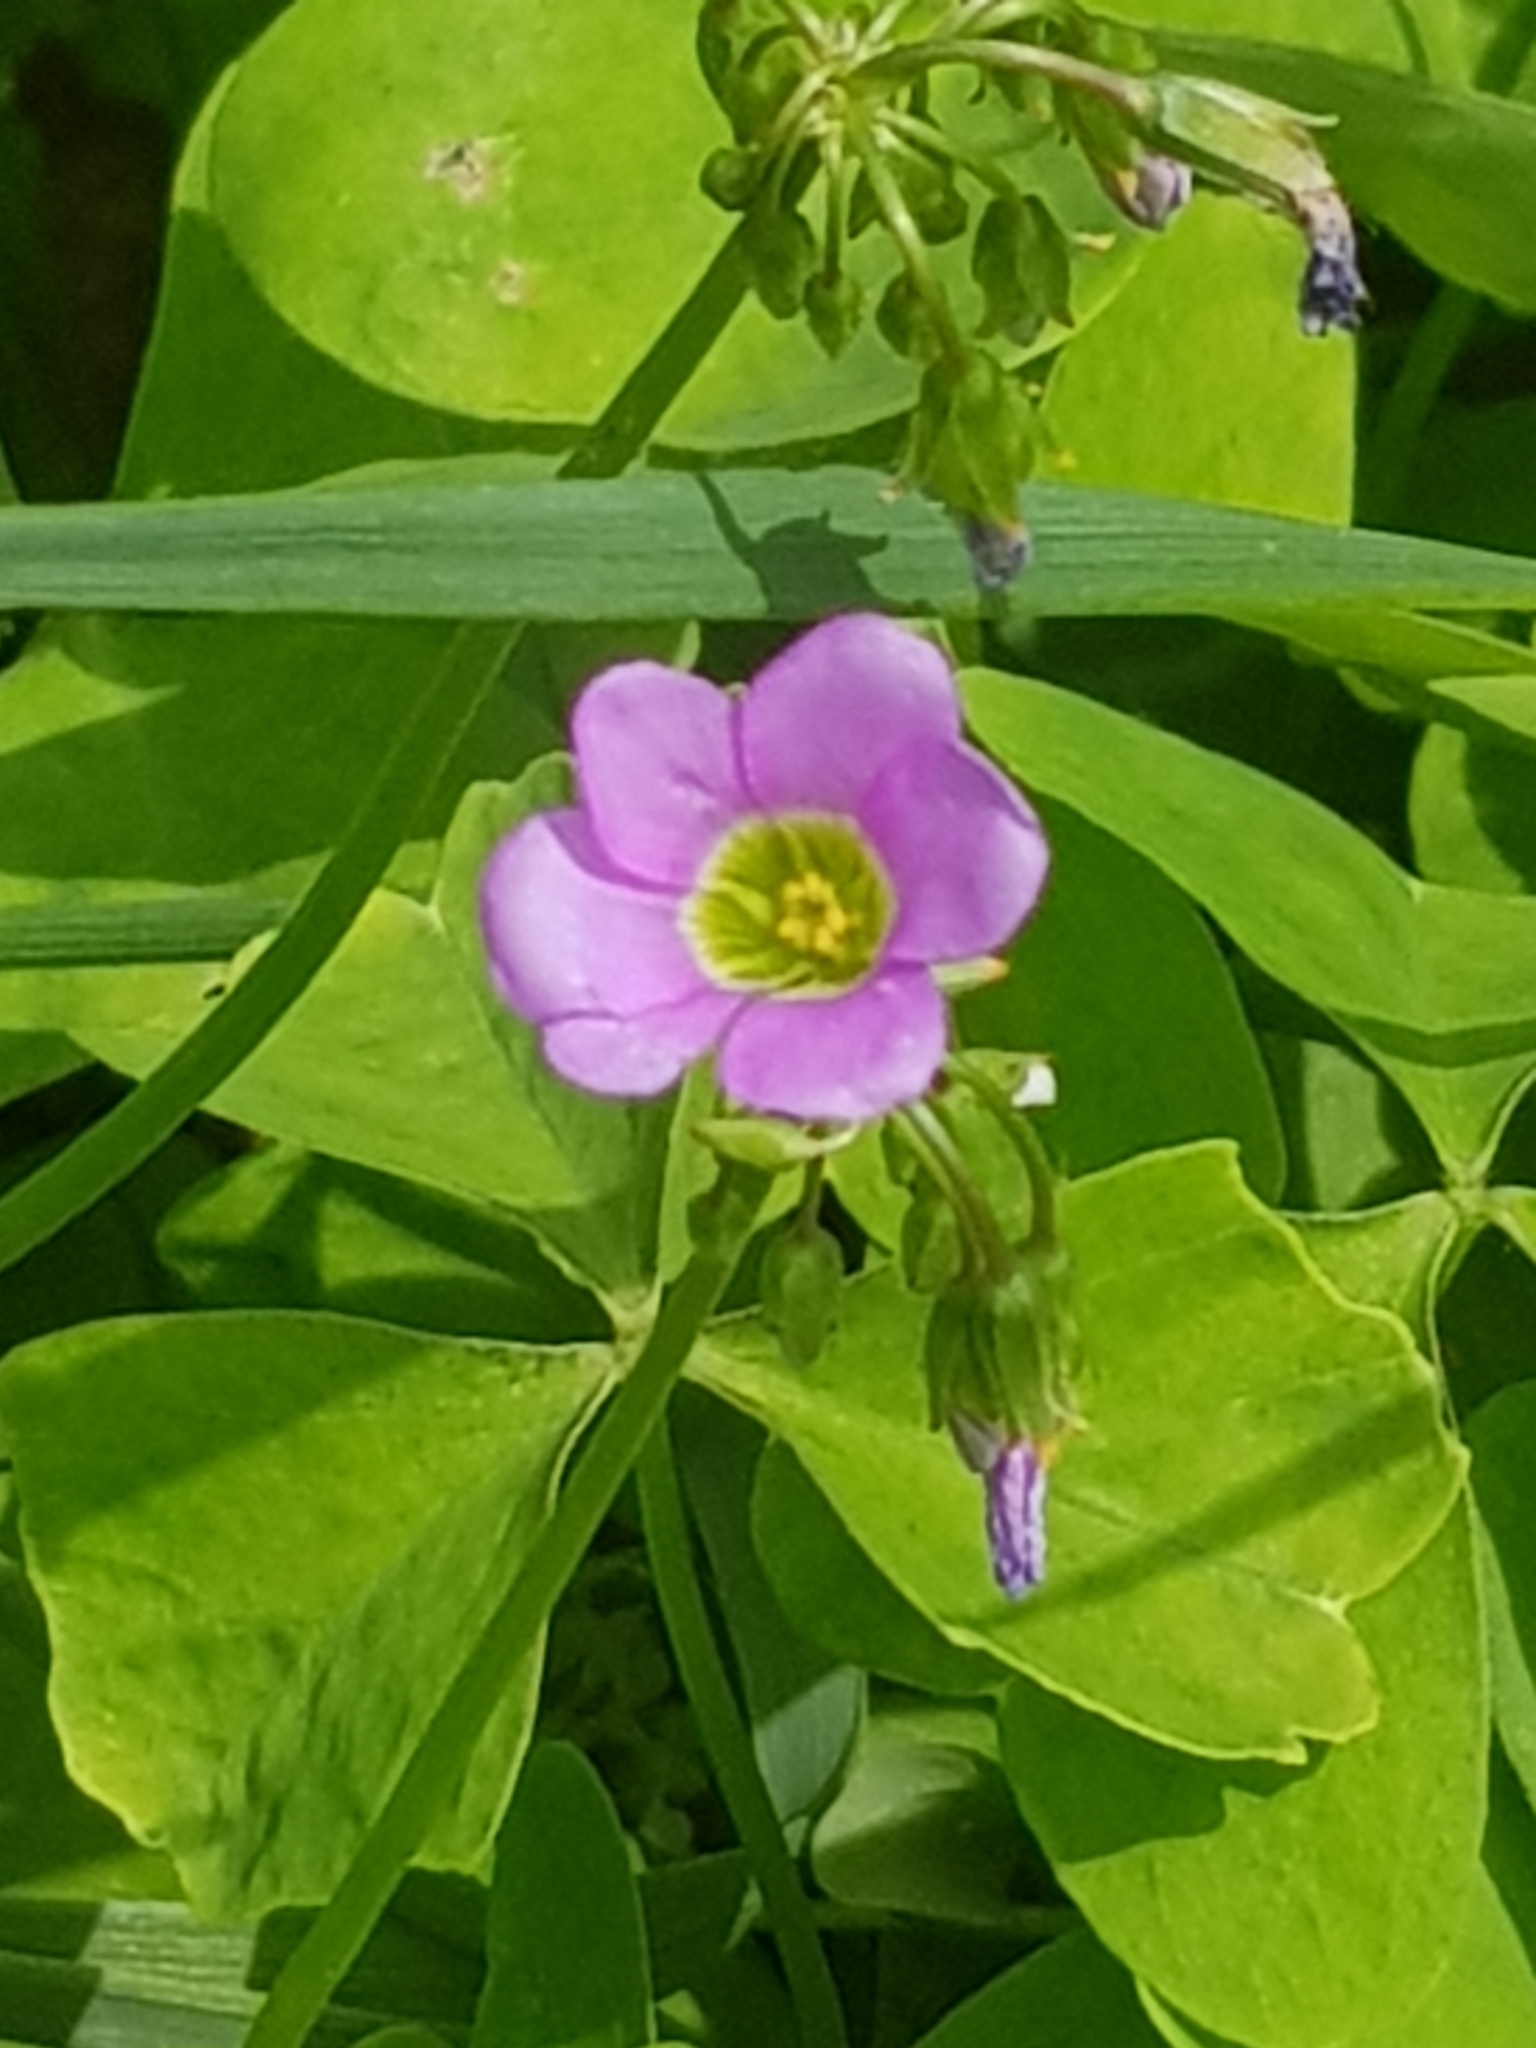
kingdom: Plantae
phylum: Tracheophyta
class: Magnoliopsida
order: Oxalidales
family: Oxalidaceae
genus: Oxalis
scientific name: Oxalis latifolia
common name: Garden pink-sorrel
